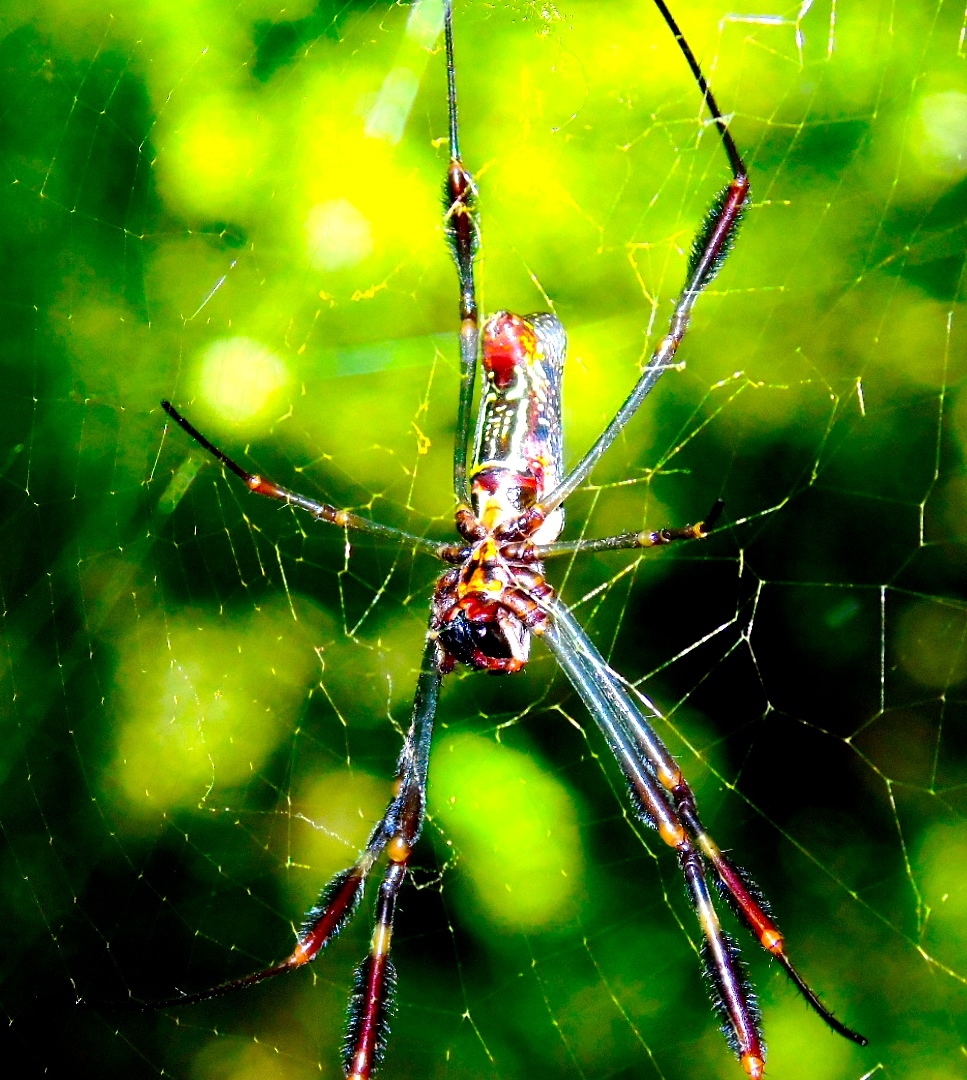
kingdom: Animalia
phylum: Arthropoda
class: Arachnida
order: Araneae
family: Araneidae
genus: Trichonephila
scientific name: Trichonephila clavipes
